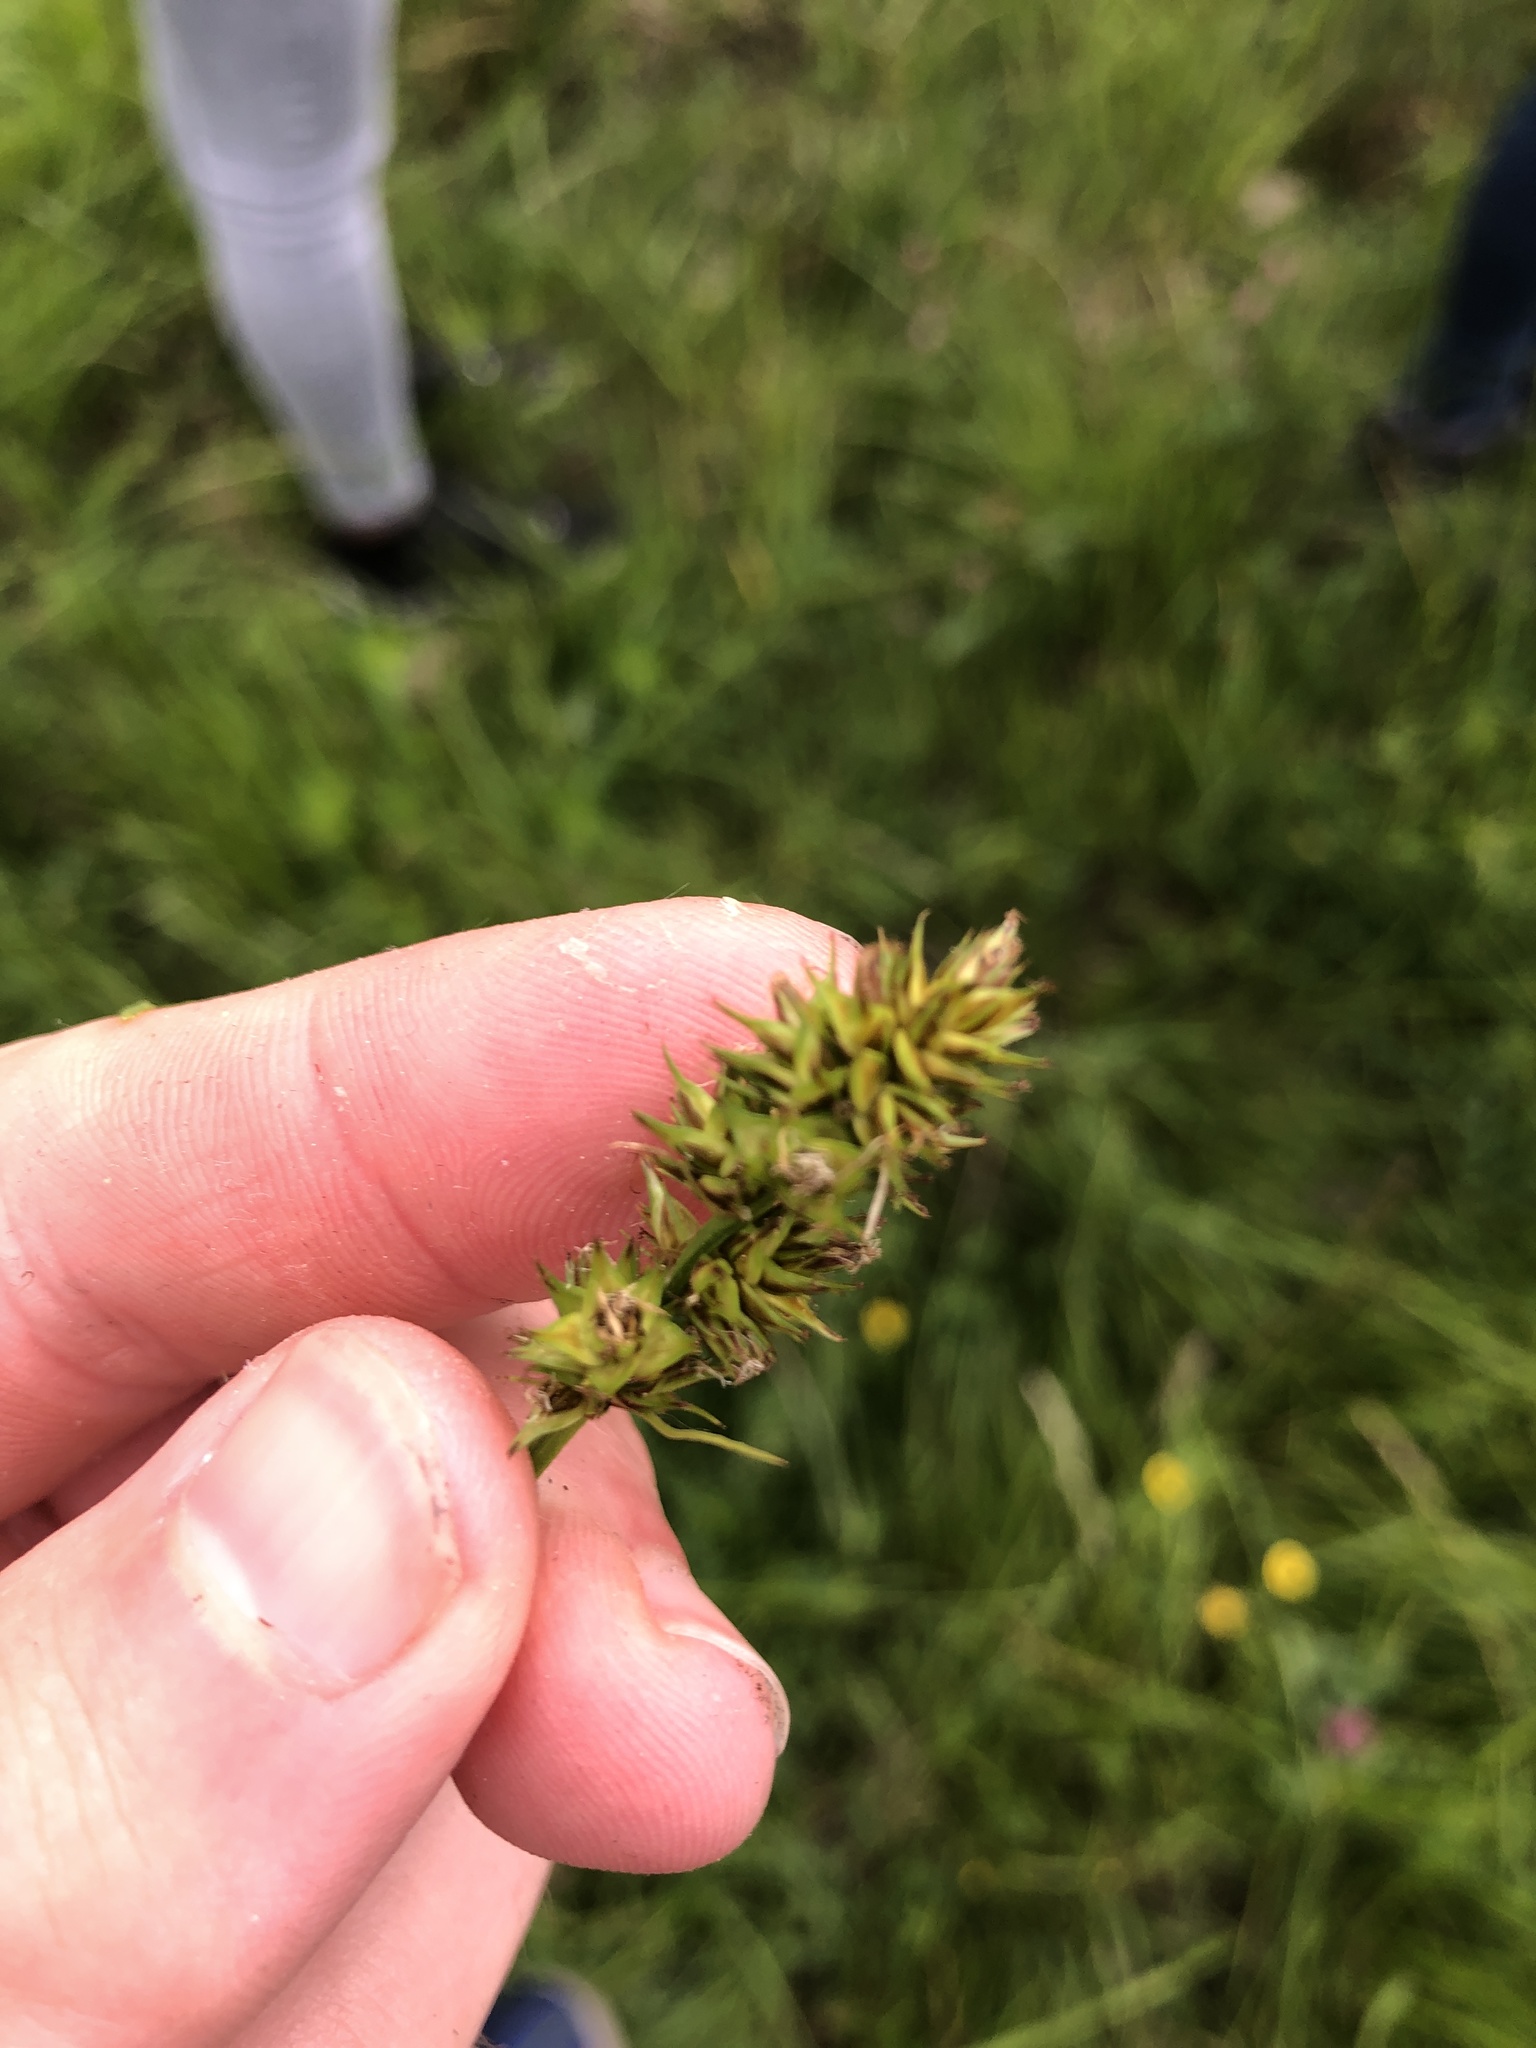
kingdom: Plantae
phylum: Tracheophyta
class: Liliopsida
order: Poales
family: Cyperaceae
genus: Carex
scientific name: Carex otrubae
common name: False fox-sedge
